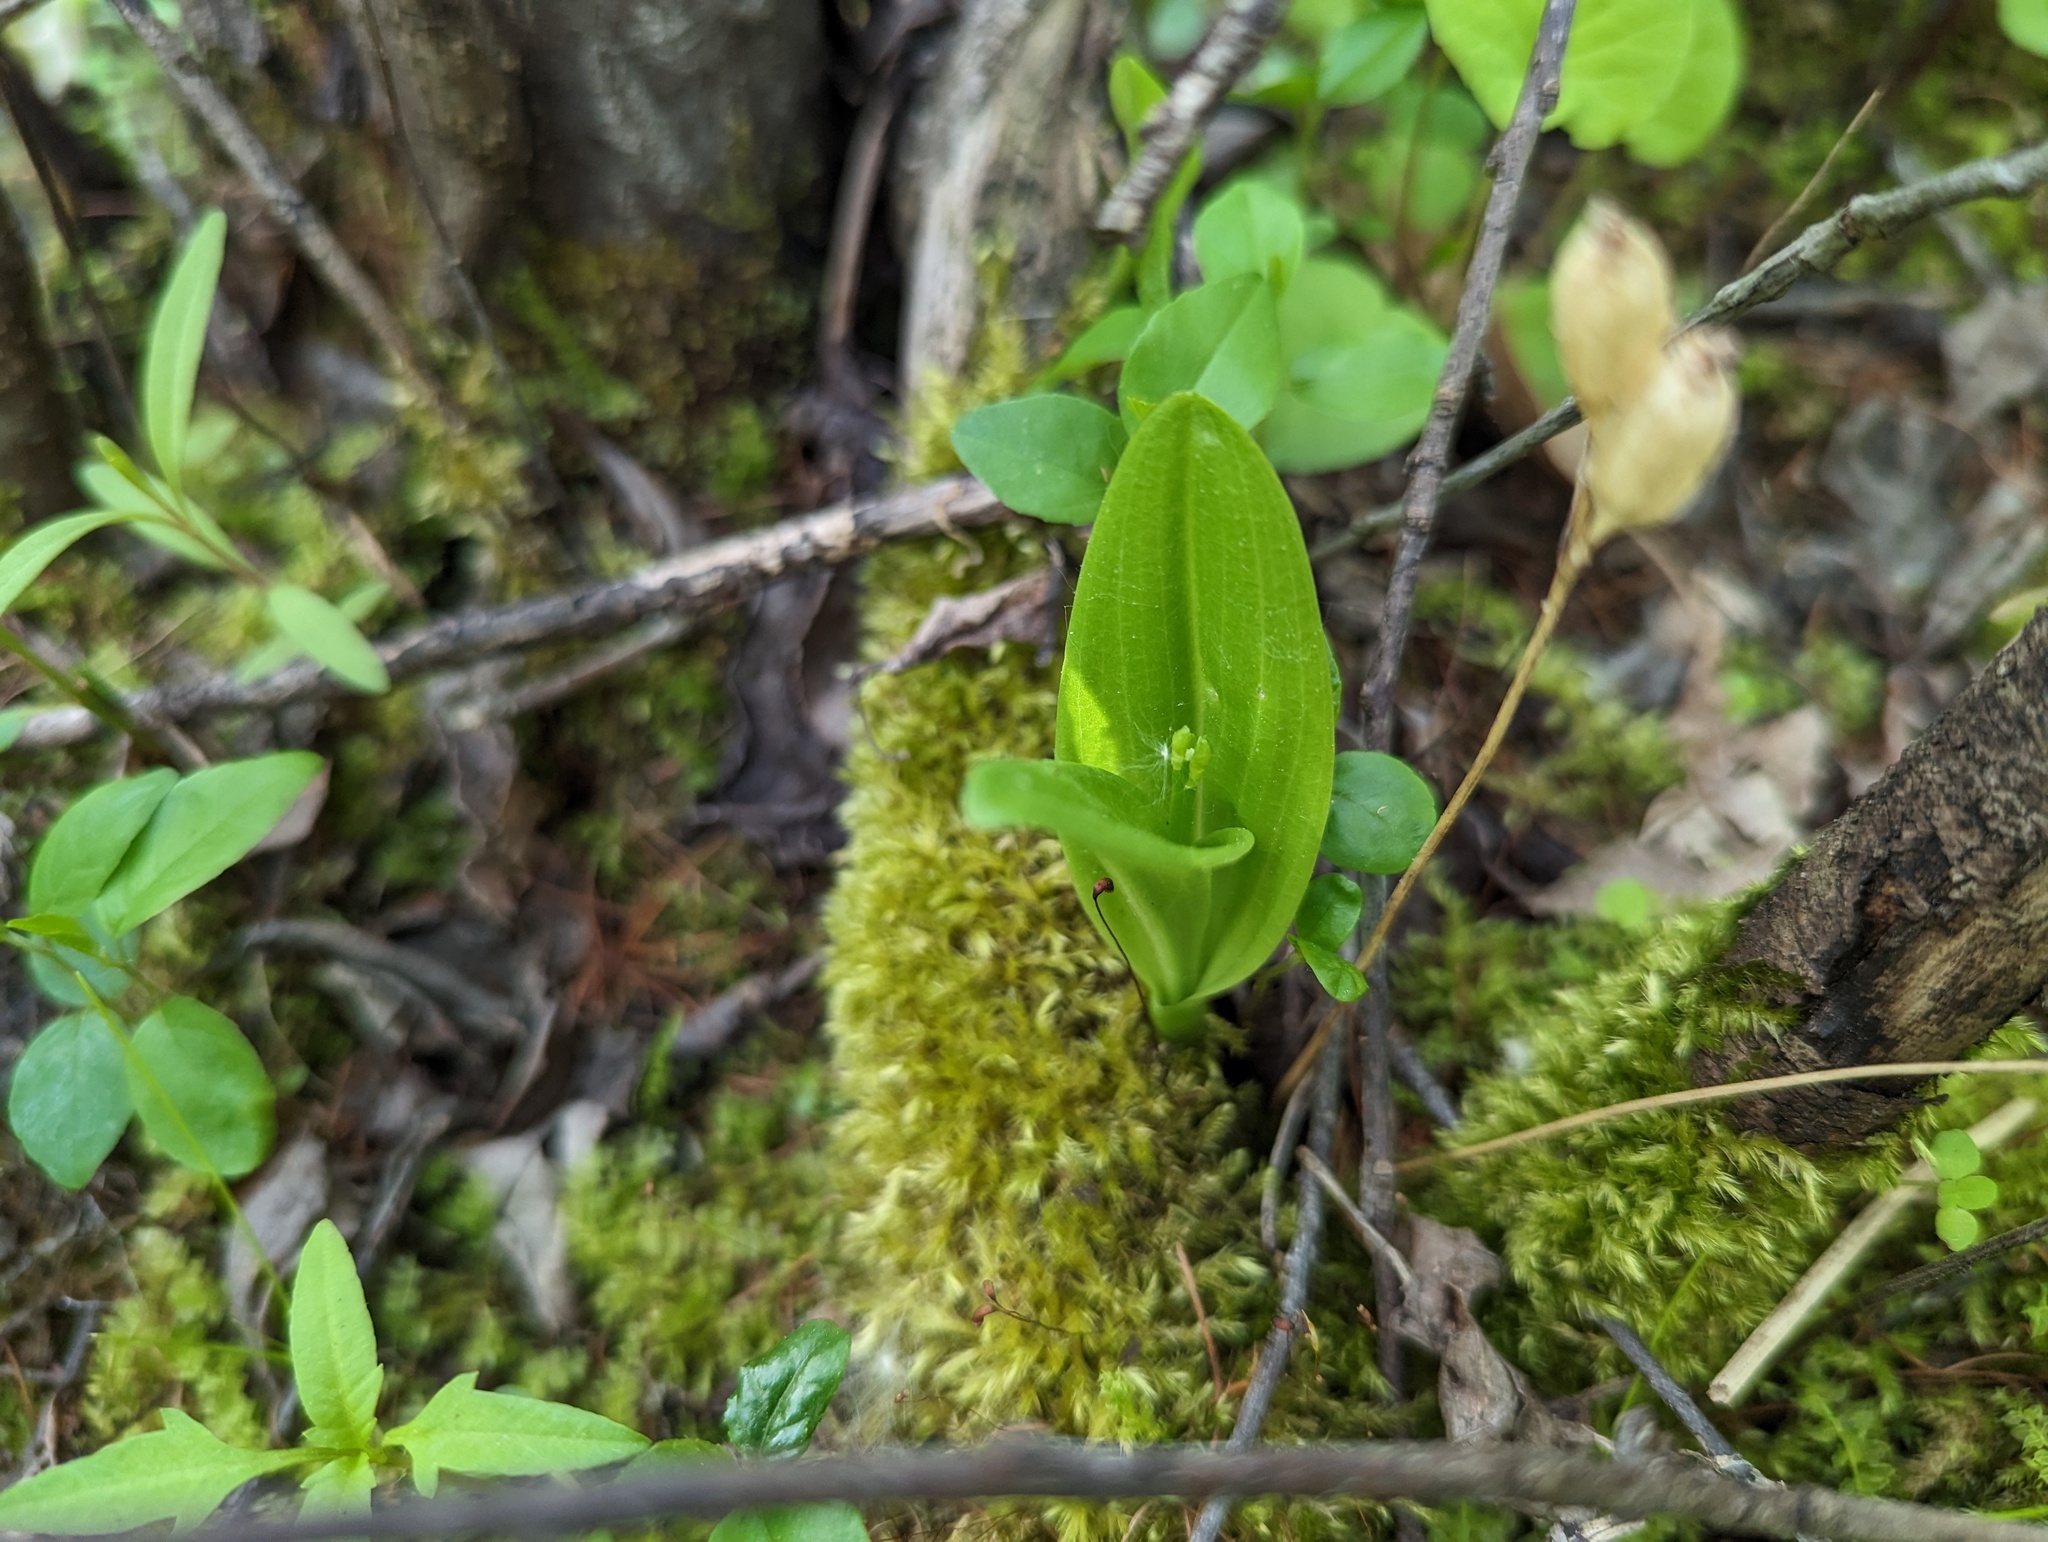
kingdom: Animalia
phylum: Arthropoda
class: Insecta
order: Coleoptera
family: Curculionidae
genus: Liparis
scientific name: Liparis loeselii
